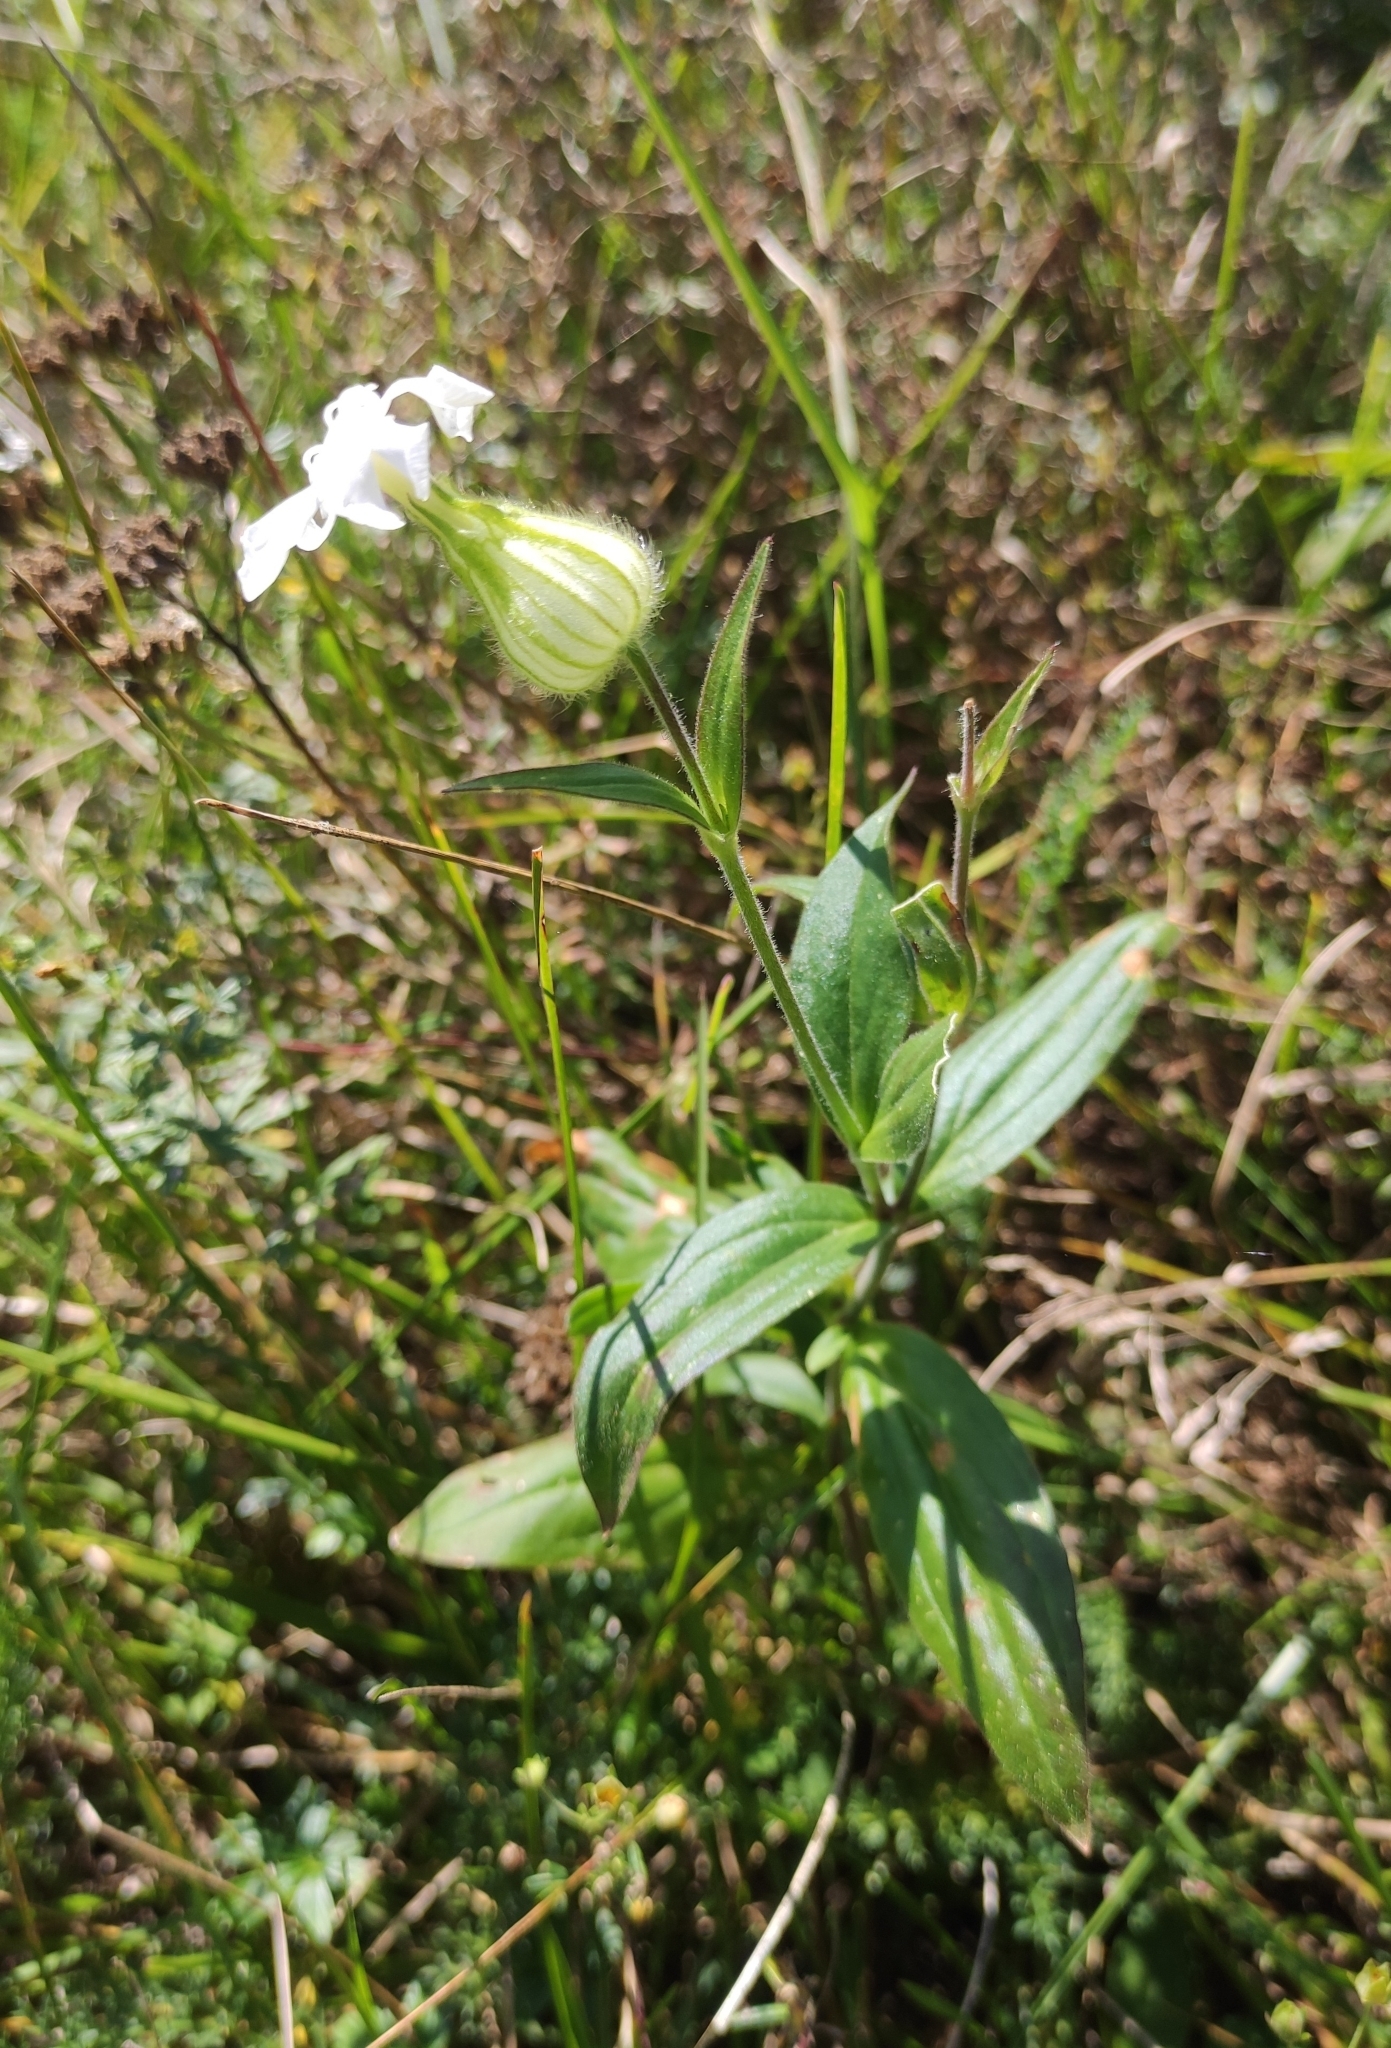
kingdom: Plantae
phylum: Tracheophyta
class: Magnoliopsida
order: Caryophyllales
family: Caryophyllaceae
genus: Silene
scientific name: Silene latifolia
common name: White campion
